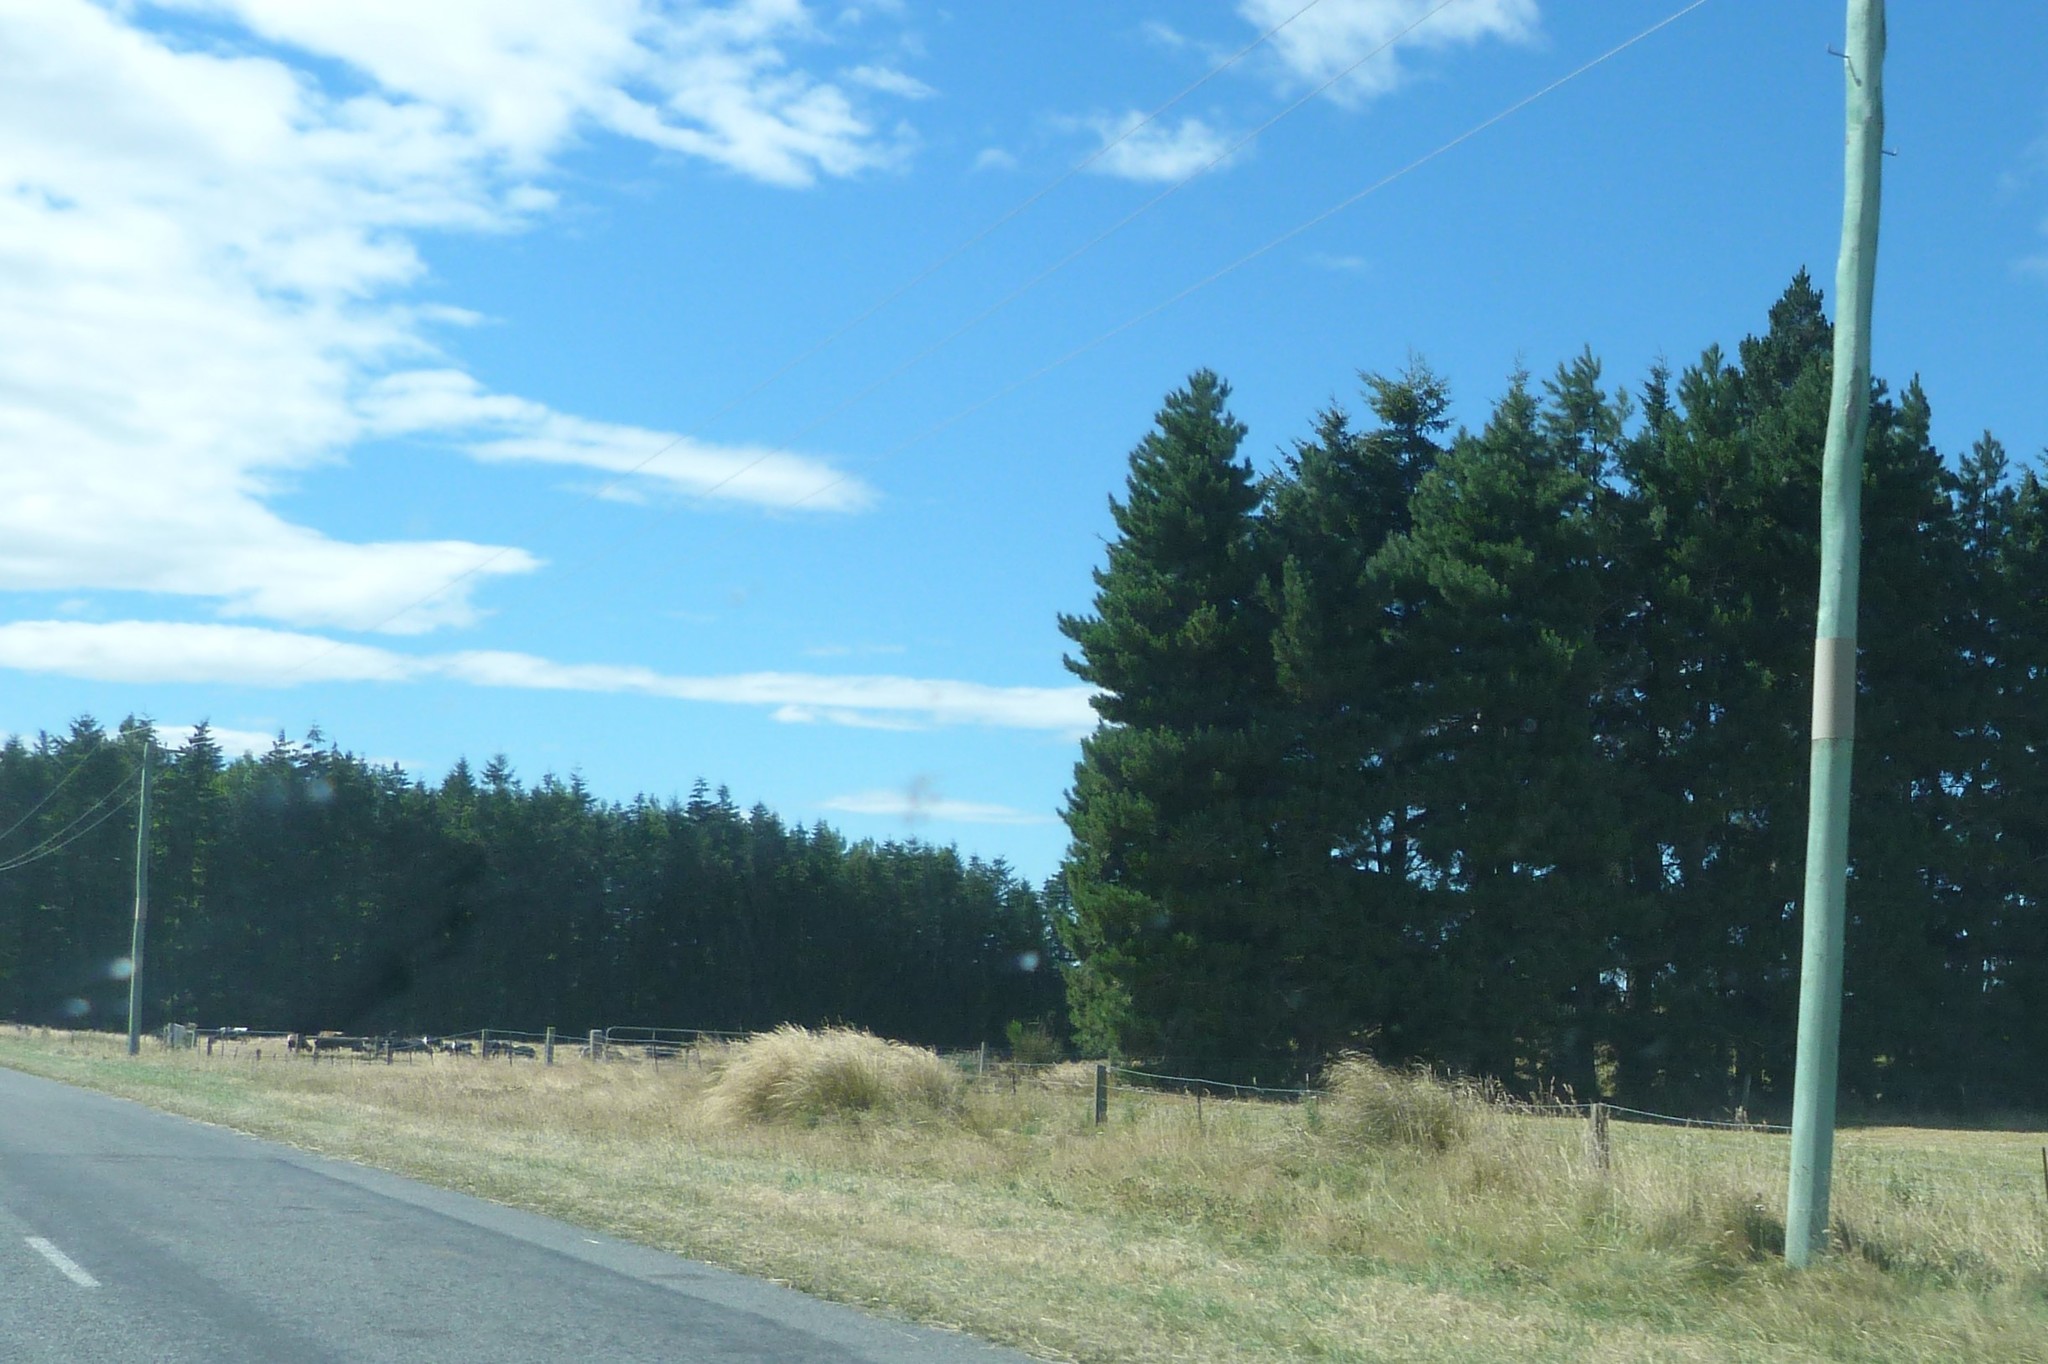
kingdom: Plantae
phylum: Tracheophyta
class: Liliopsida
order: Poales
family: Poaceae
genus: Chionochloa
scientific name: Chionochloa rigida
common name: Narrow leaved snow tussock
